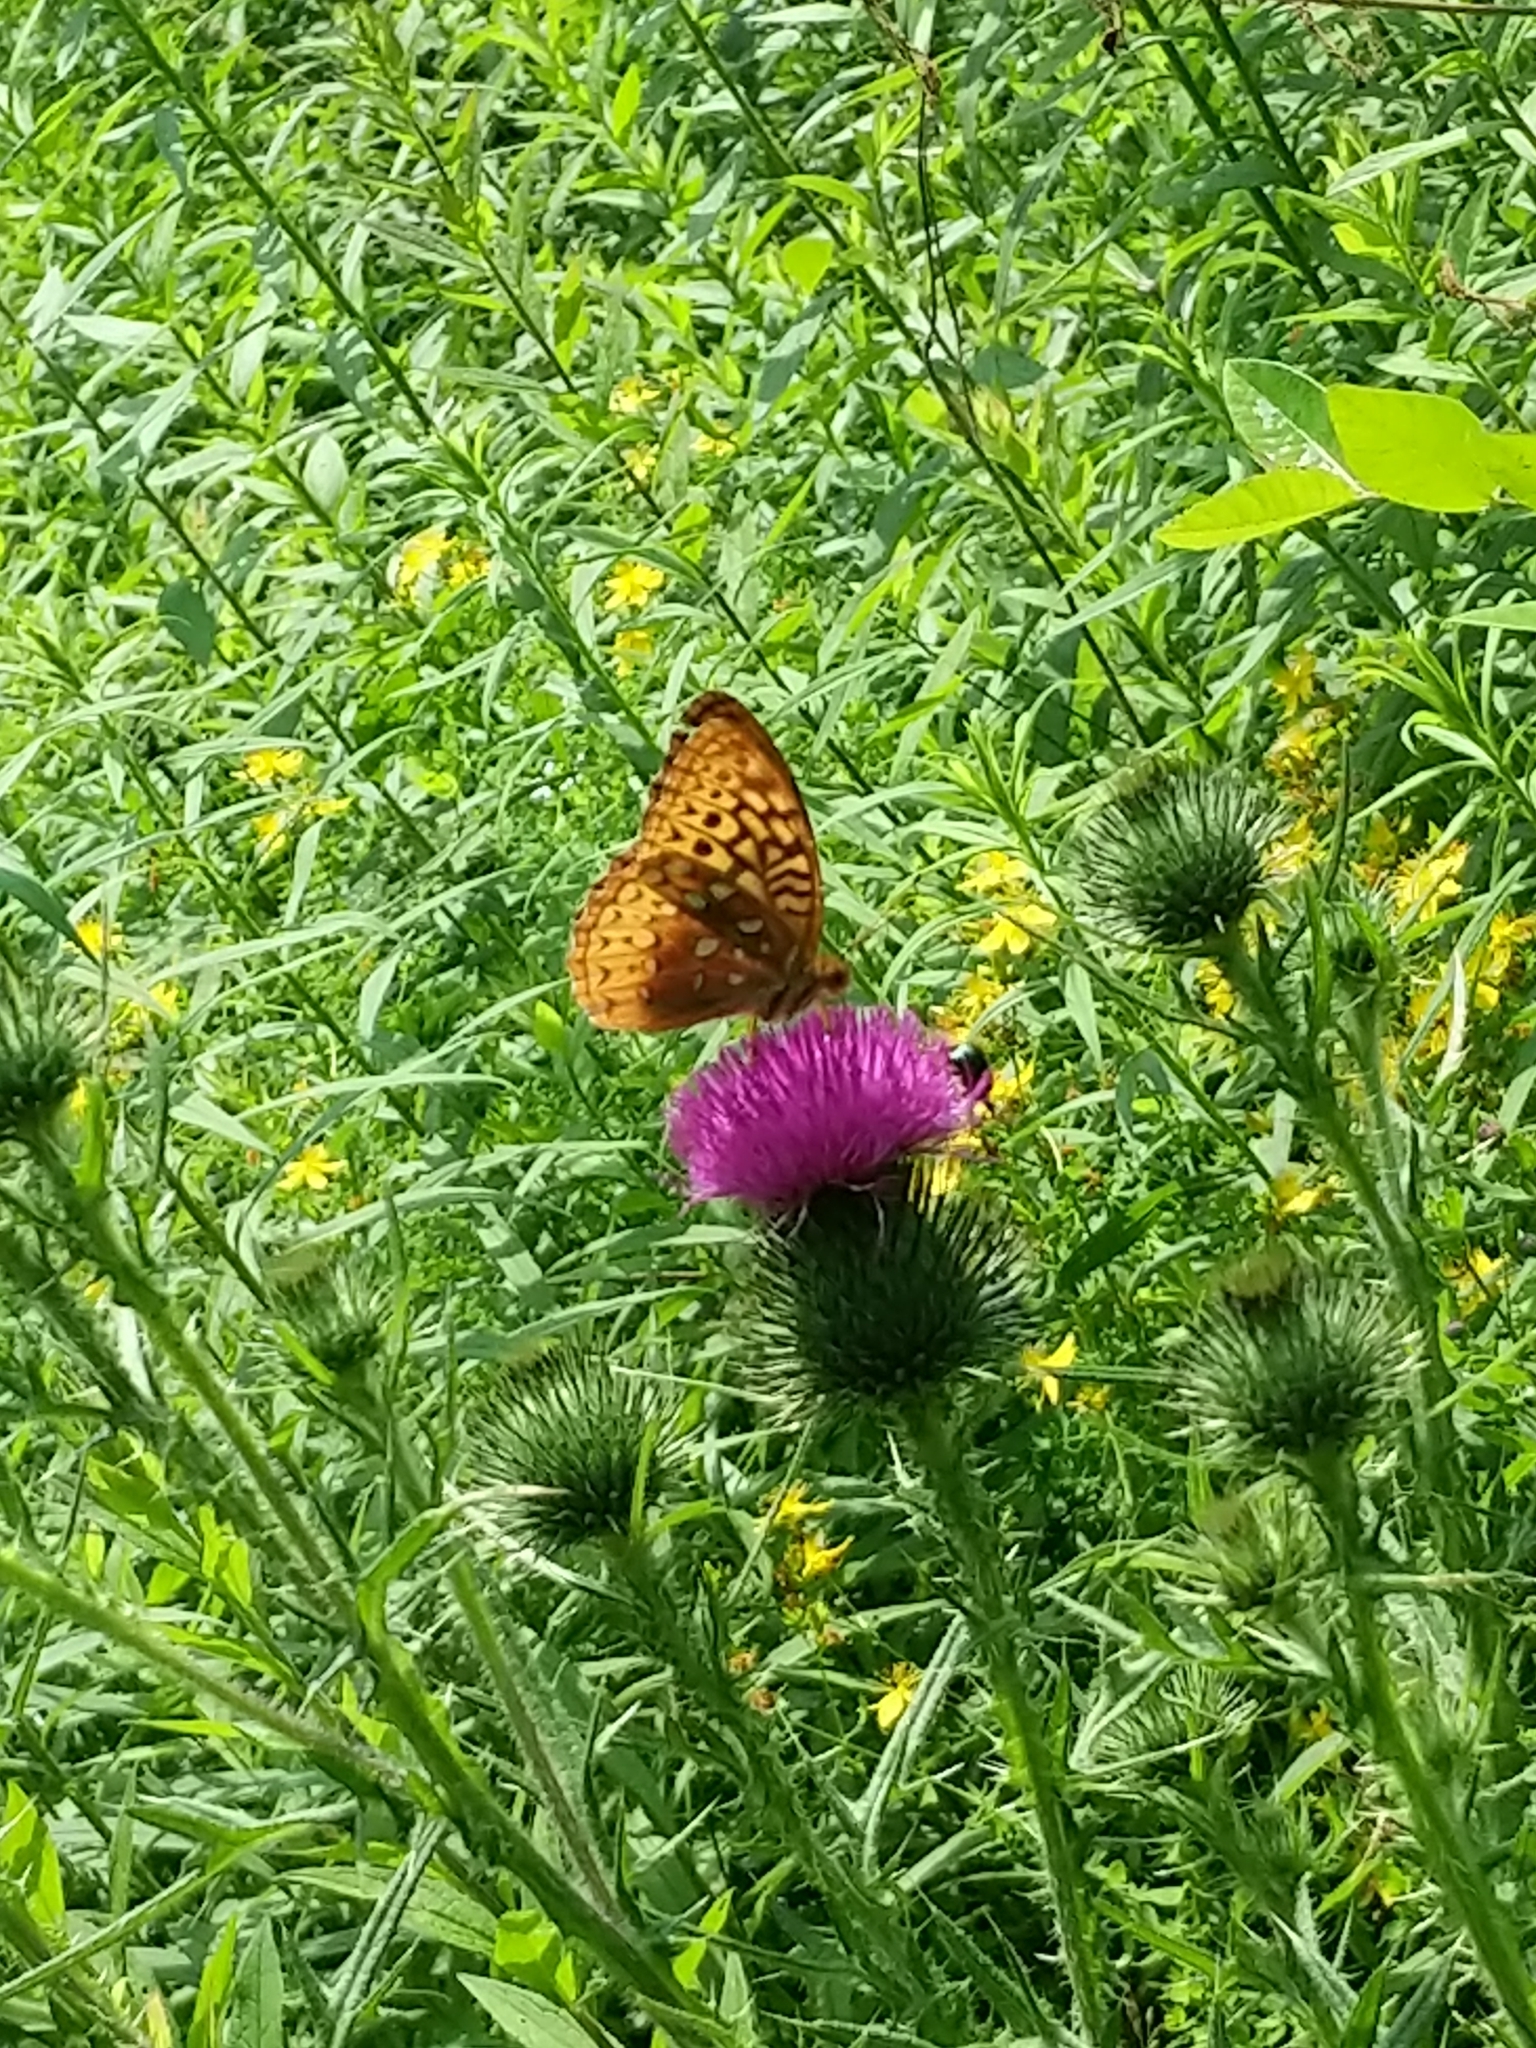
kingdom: Animalia
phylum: Arthropoda
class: Insecta
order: Lepidoptera
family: Nymphalidae
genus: Speyeria
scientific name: Speyeria cybele
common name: Great spangled fritillary
